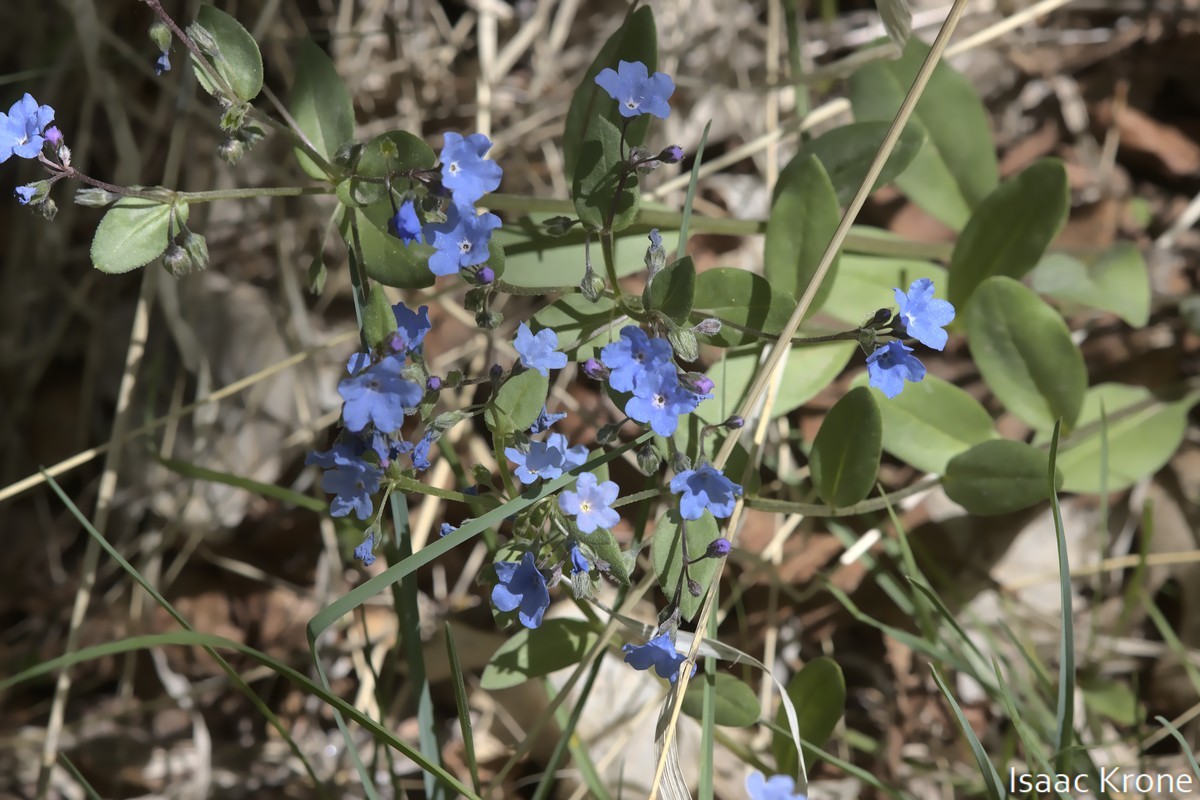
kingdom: Plantae
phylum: Tracheophyta
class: Magnoliopsida
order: Boraginales
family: Boraginaceae
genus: Mertensia
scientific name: Mertensia brevistyla
